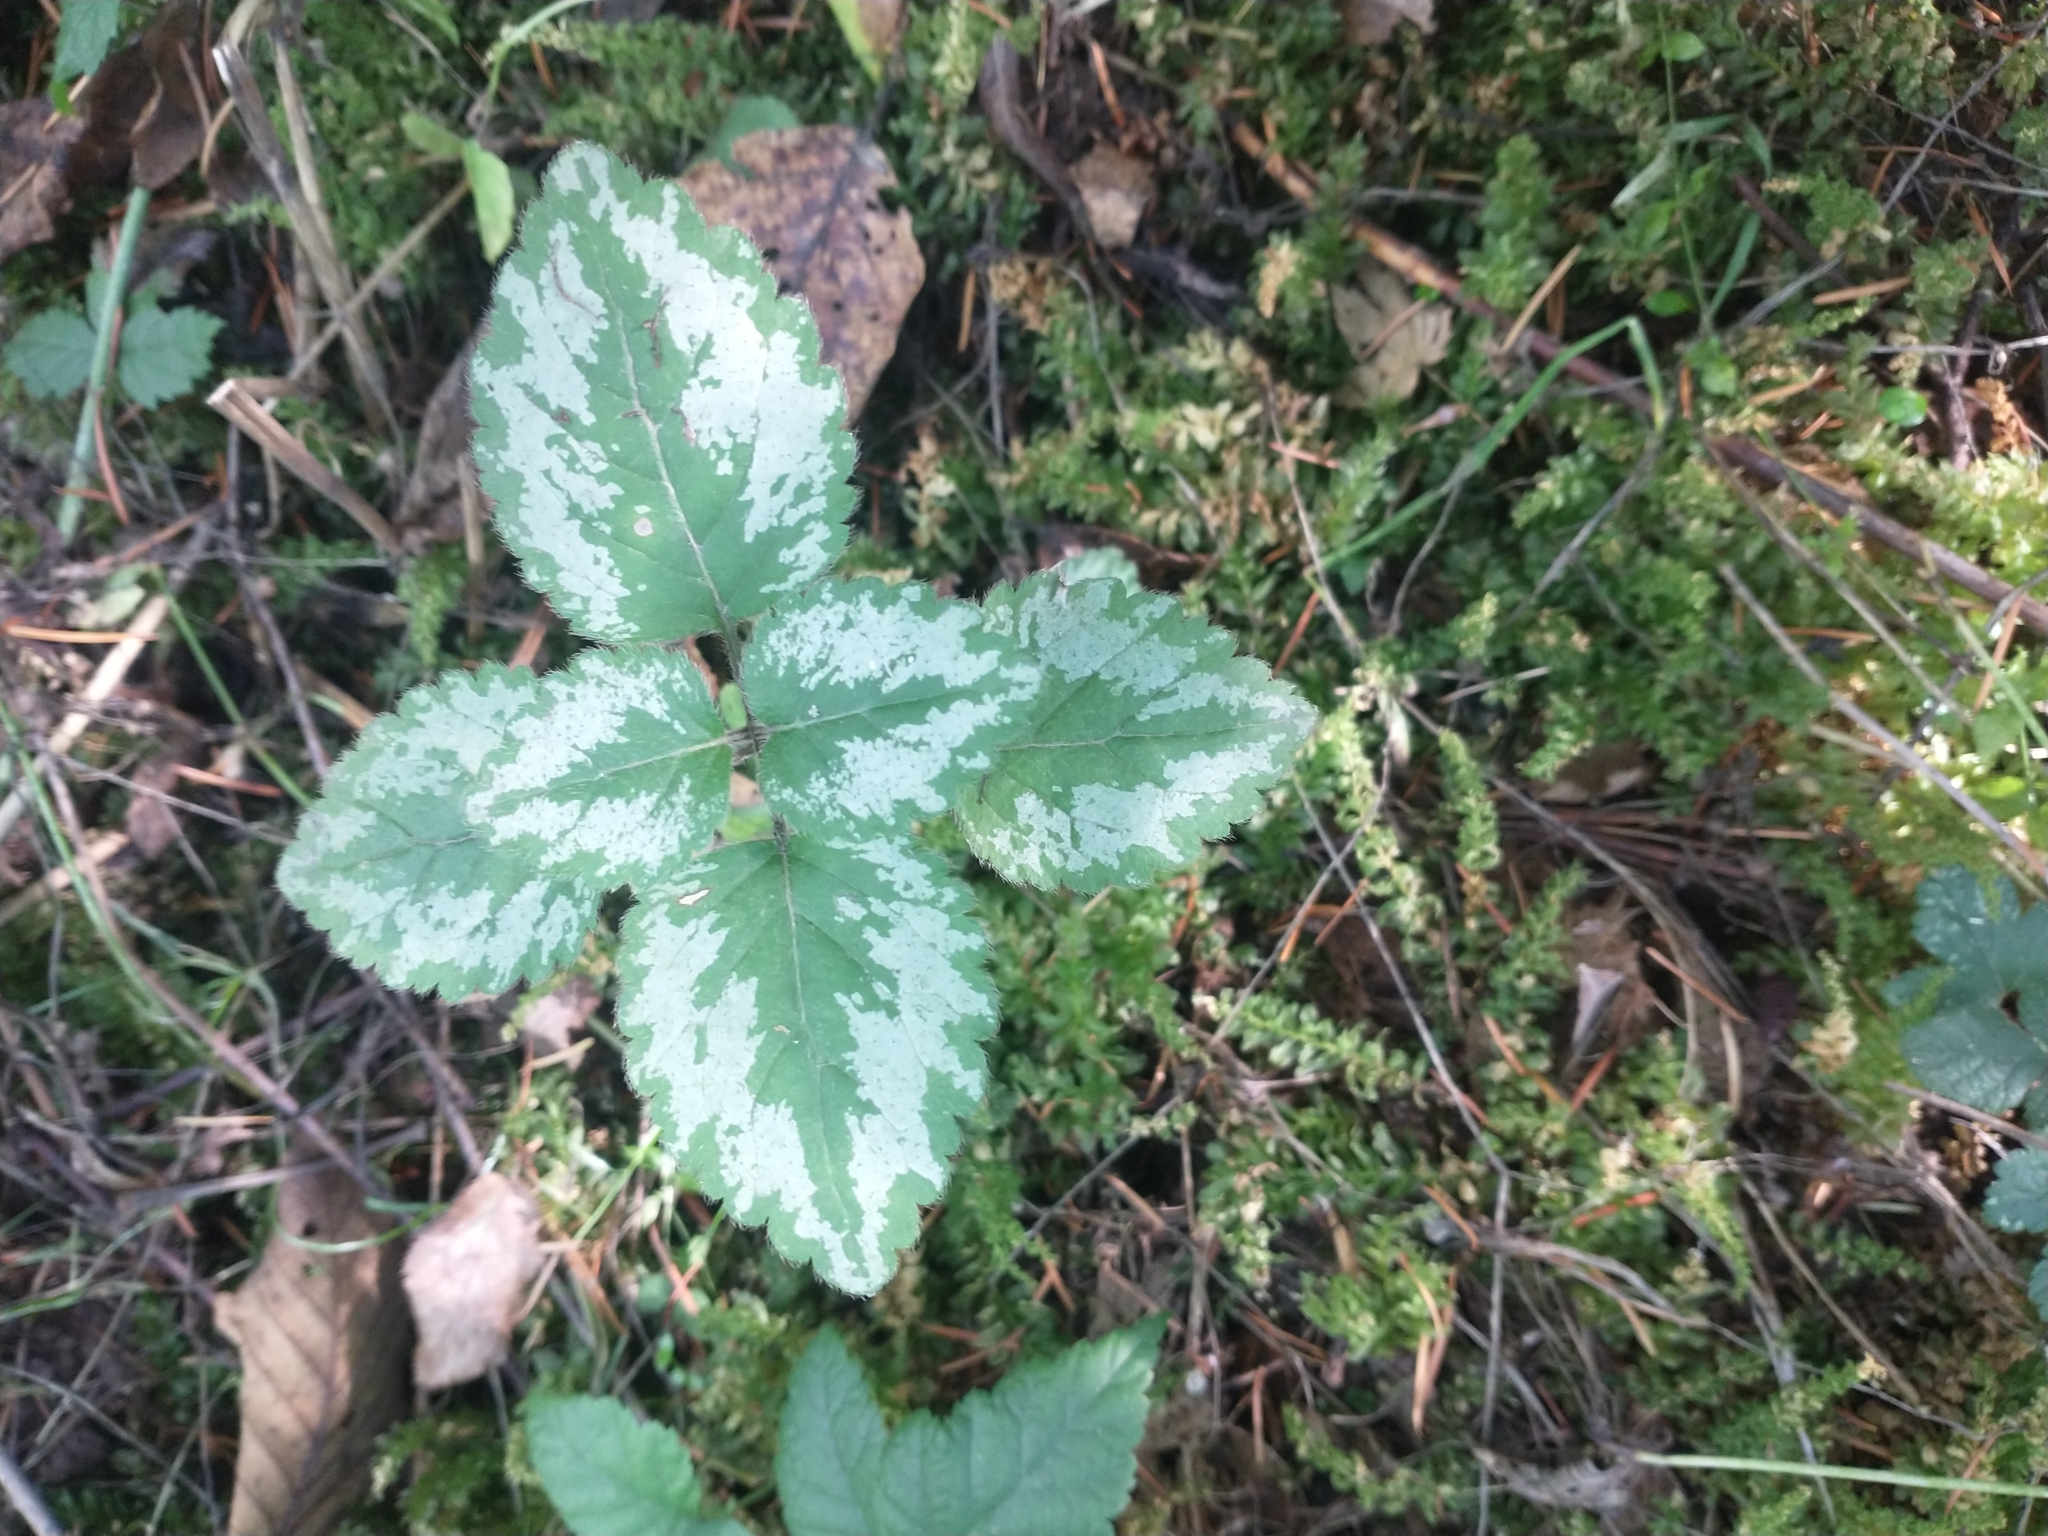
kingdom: Plantae
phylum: Tracheophyta
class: Magnoliopsida
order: Lamiales
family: Lamiaceae
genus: Lamium
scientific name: Lamium galeobdolon
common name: Yellow archangel
